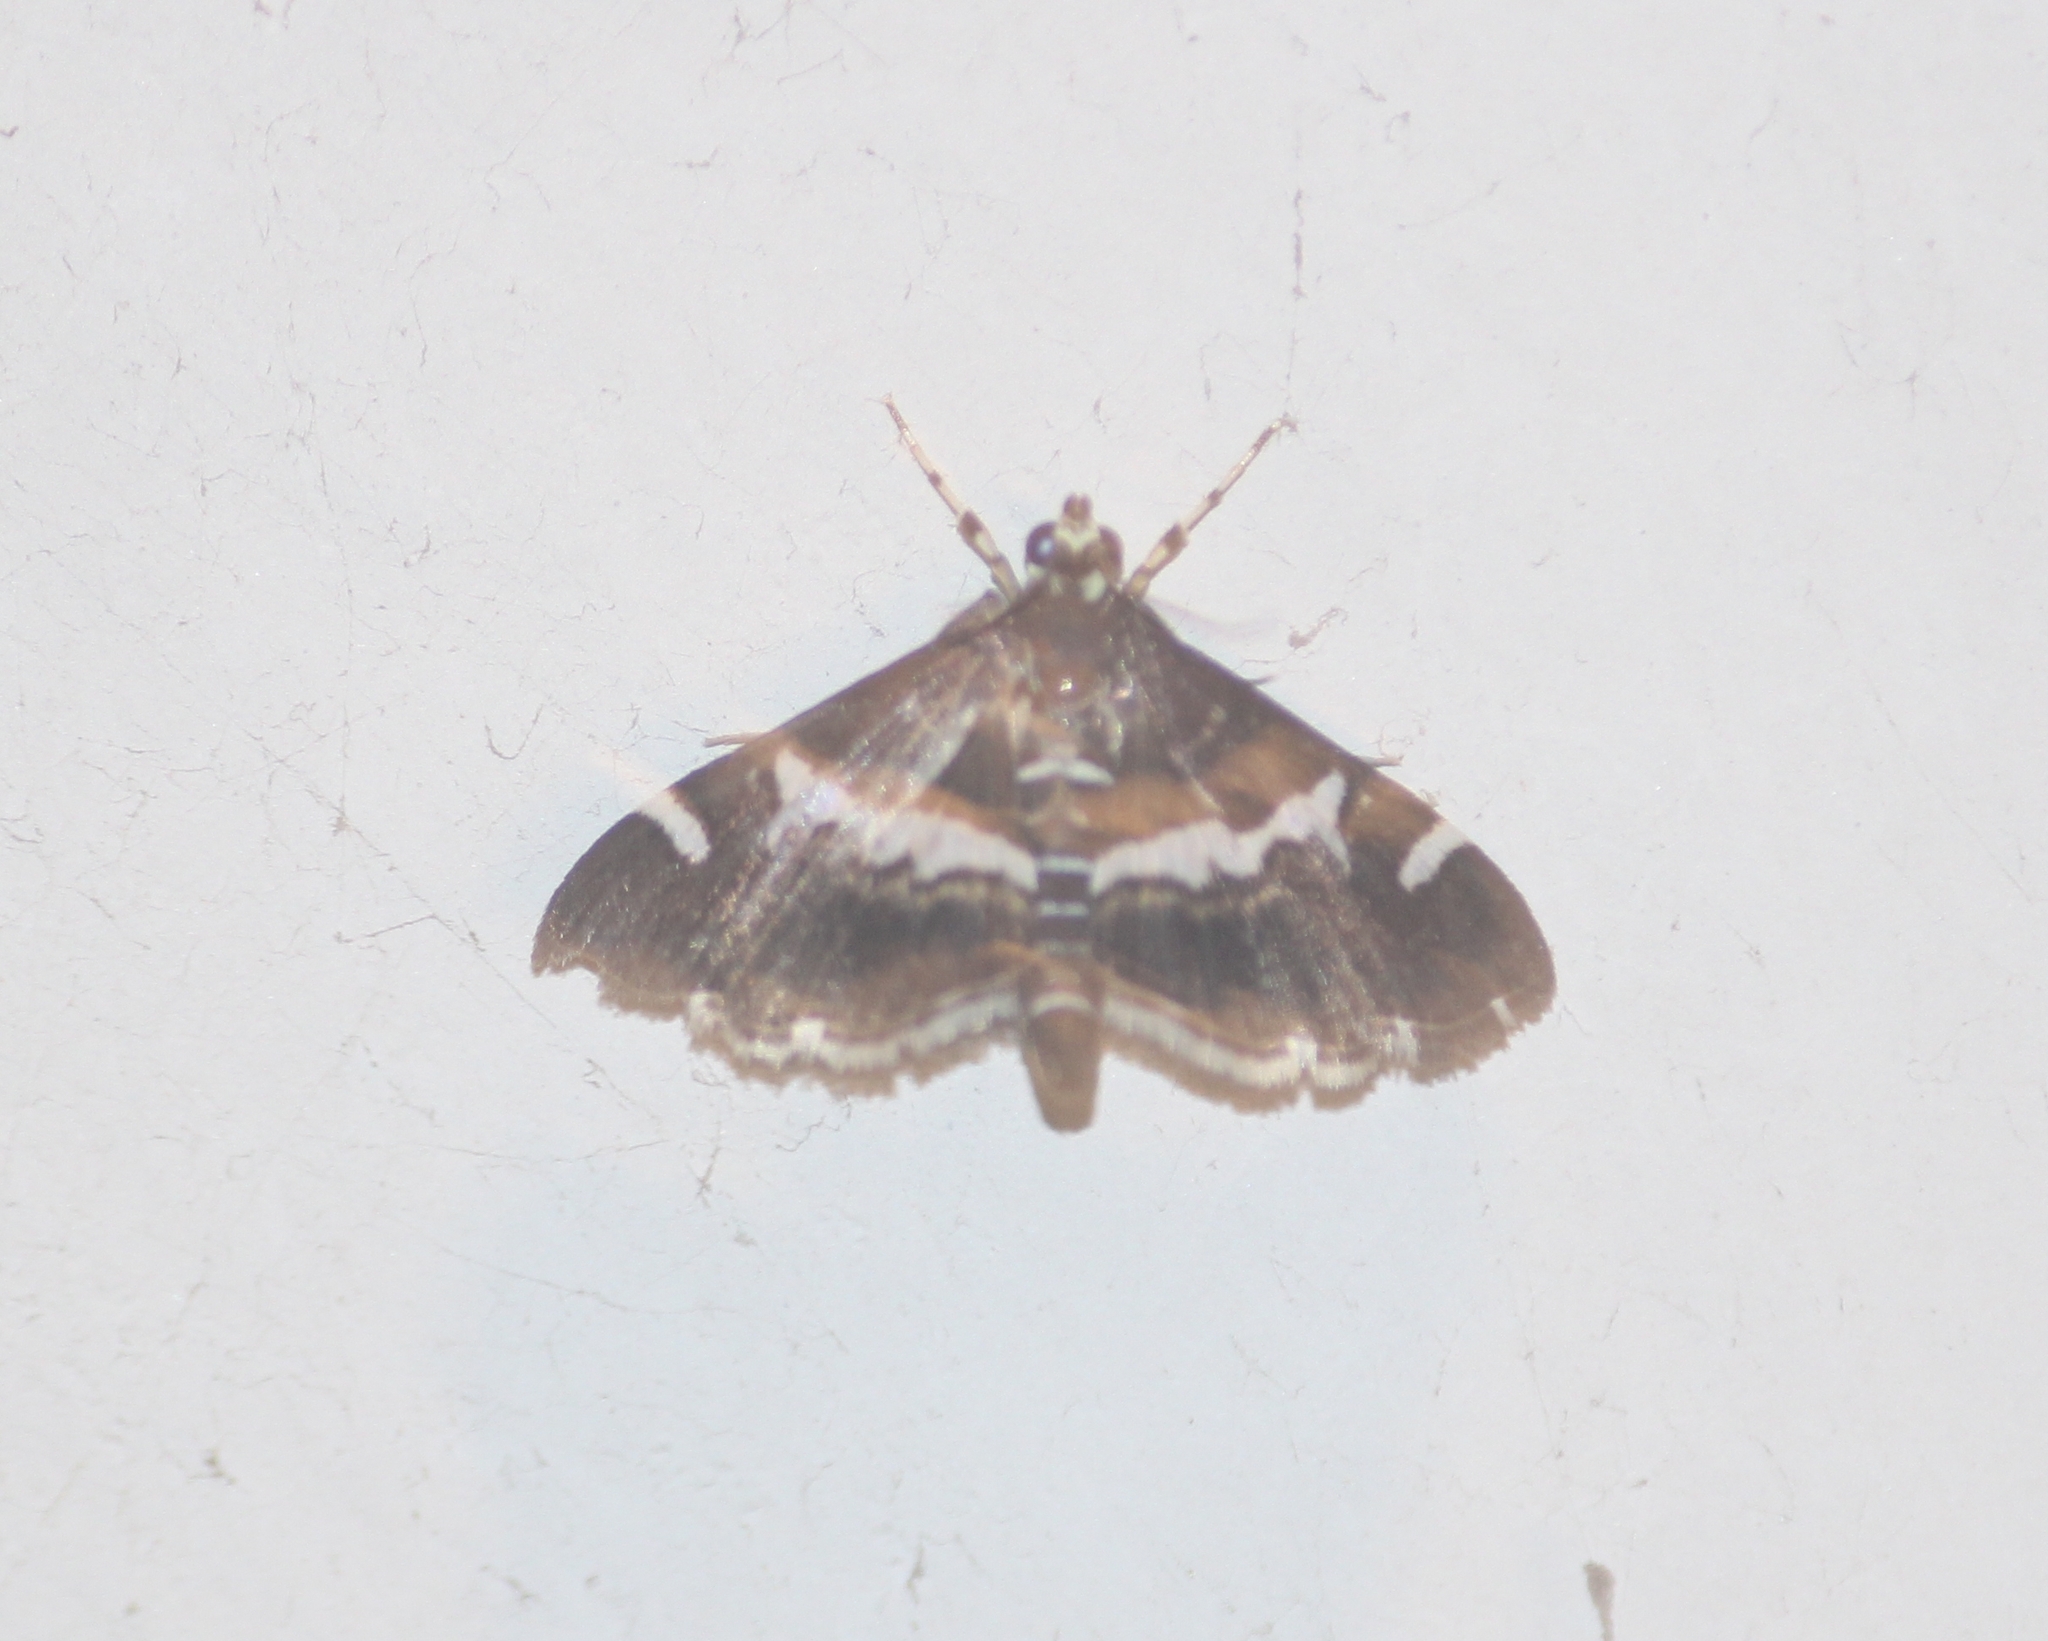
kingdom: Animalia
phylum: Arthropoda
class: Insecta
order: Lepidoptera
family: Crambidae
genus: Spoladea
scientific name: Spoladea recurvalis
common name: Beet webworm moth
